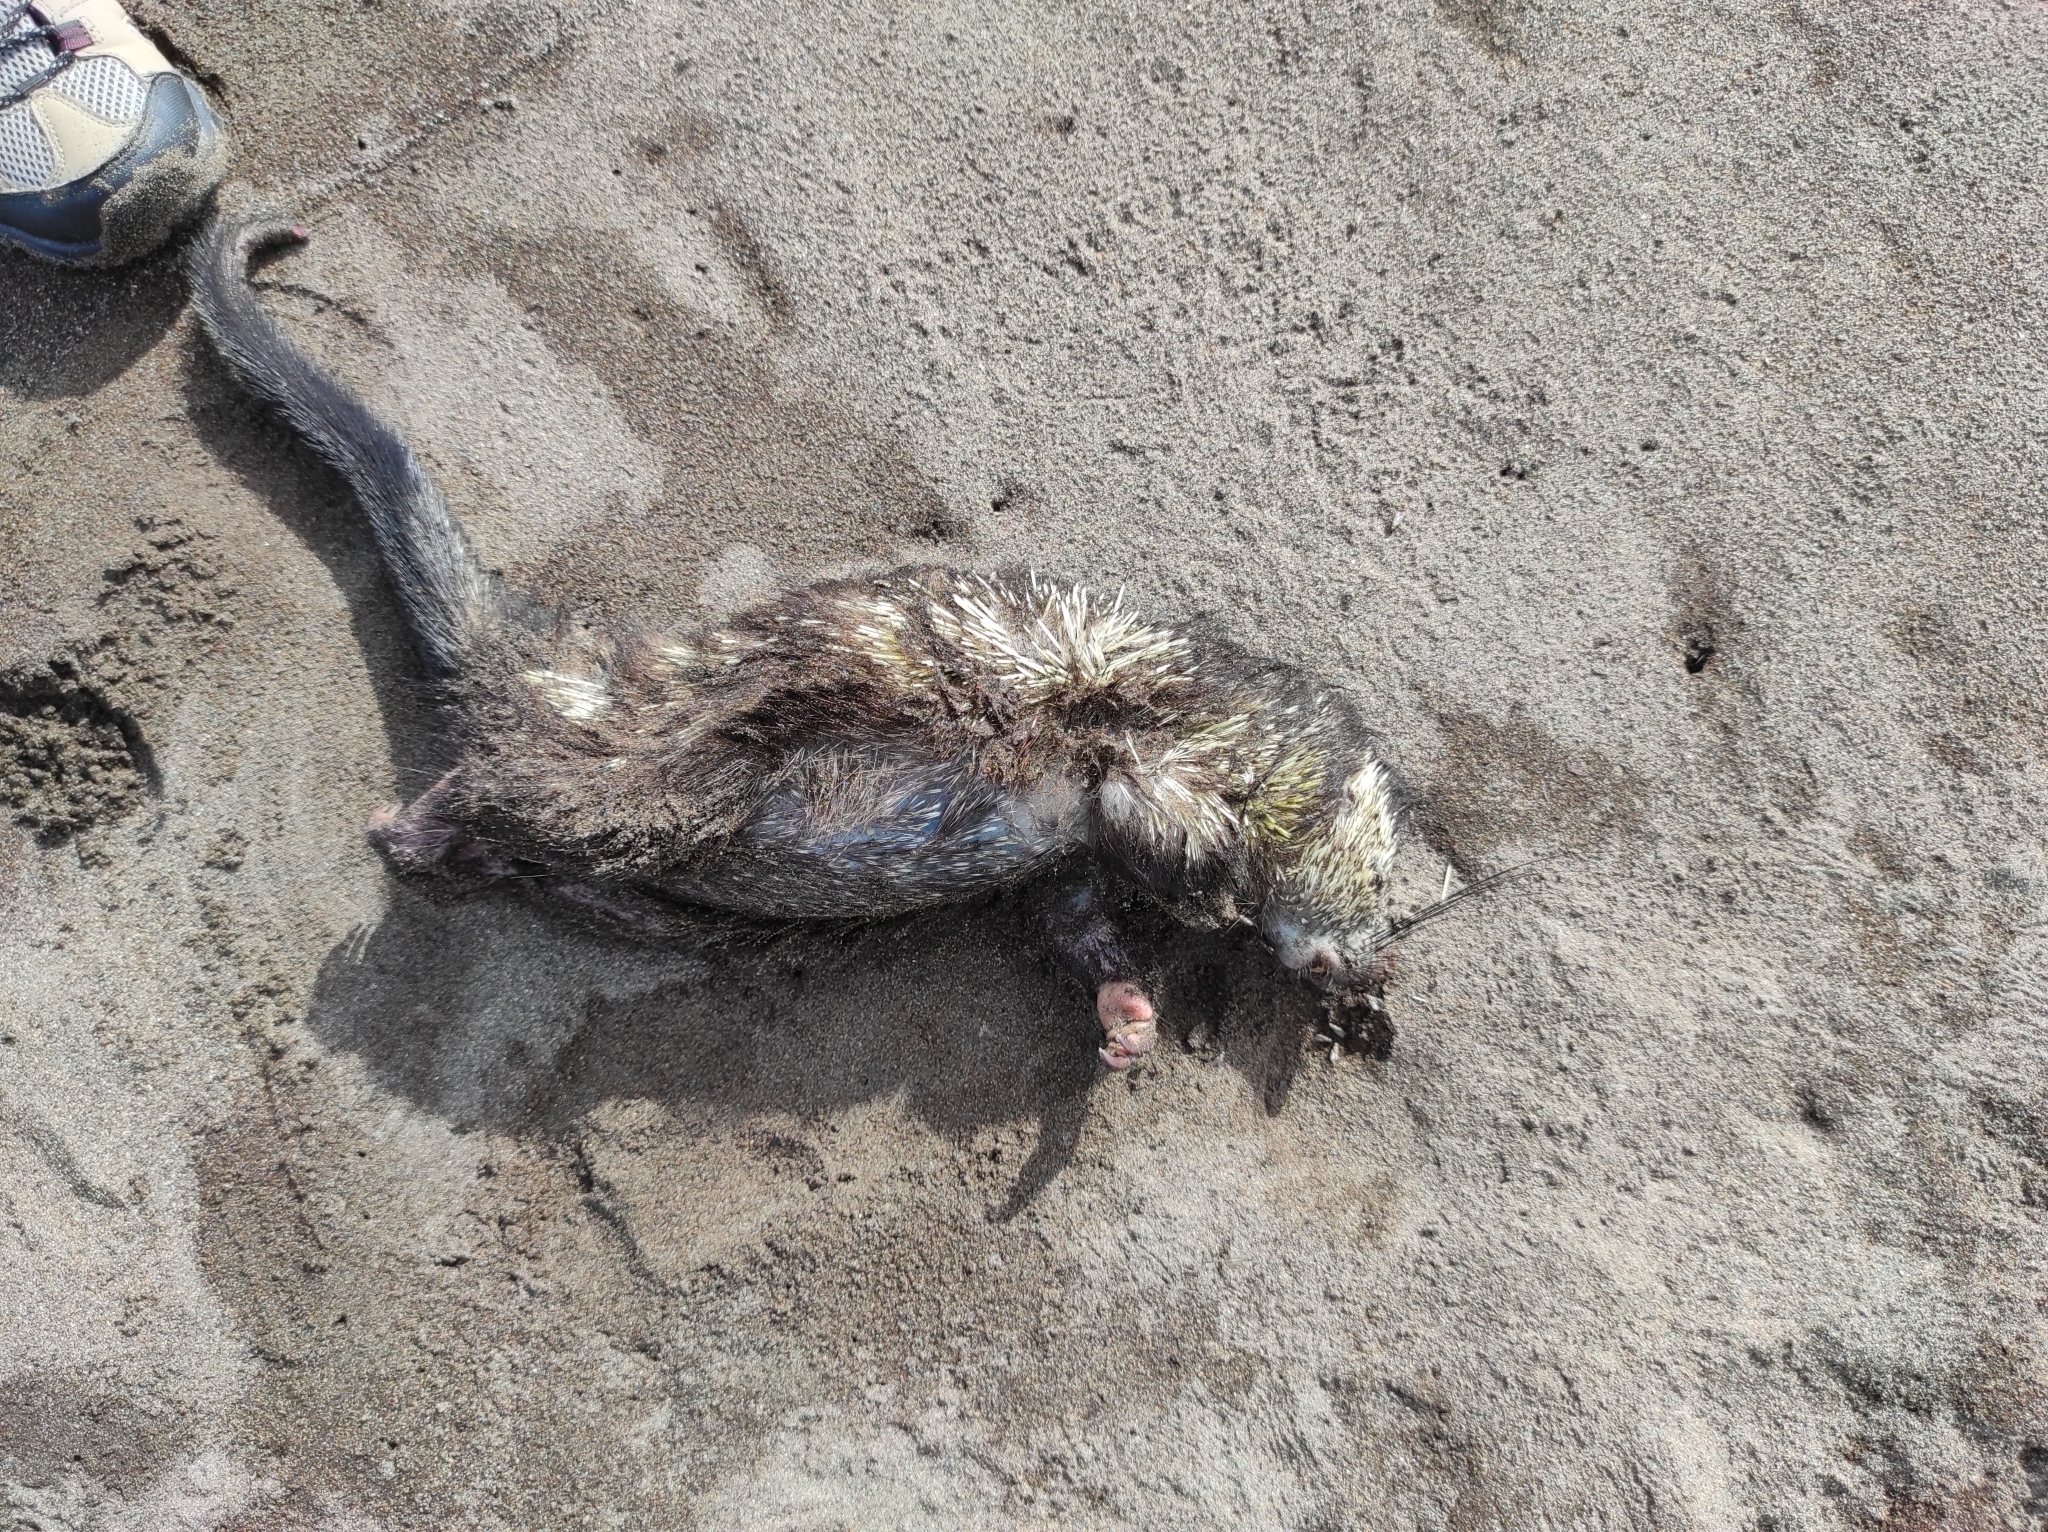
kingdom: Animalia
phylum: Chordata
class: Mammalia
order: Rodentia
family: Erethizontidae
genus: Sphiggurus
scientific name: Sphiggurus mexicanus
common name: Mexican hairy dwarf porcupine
